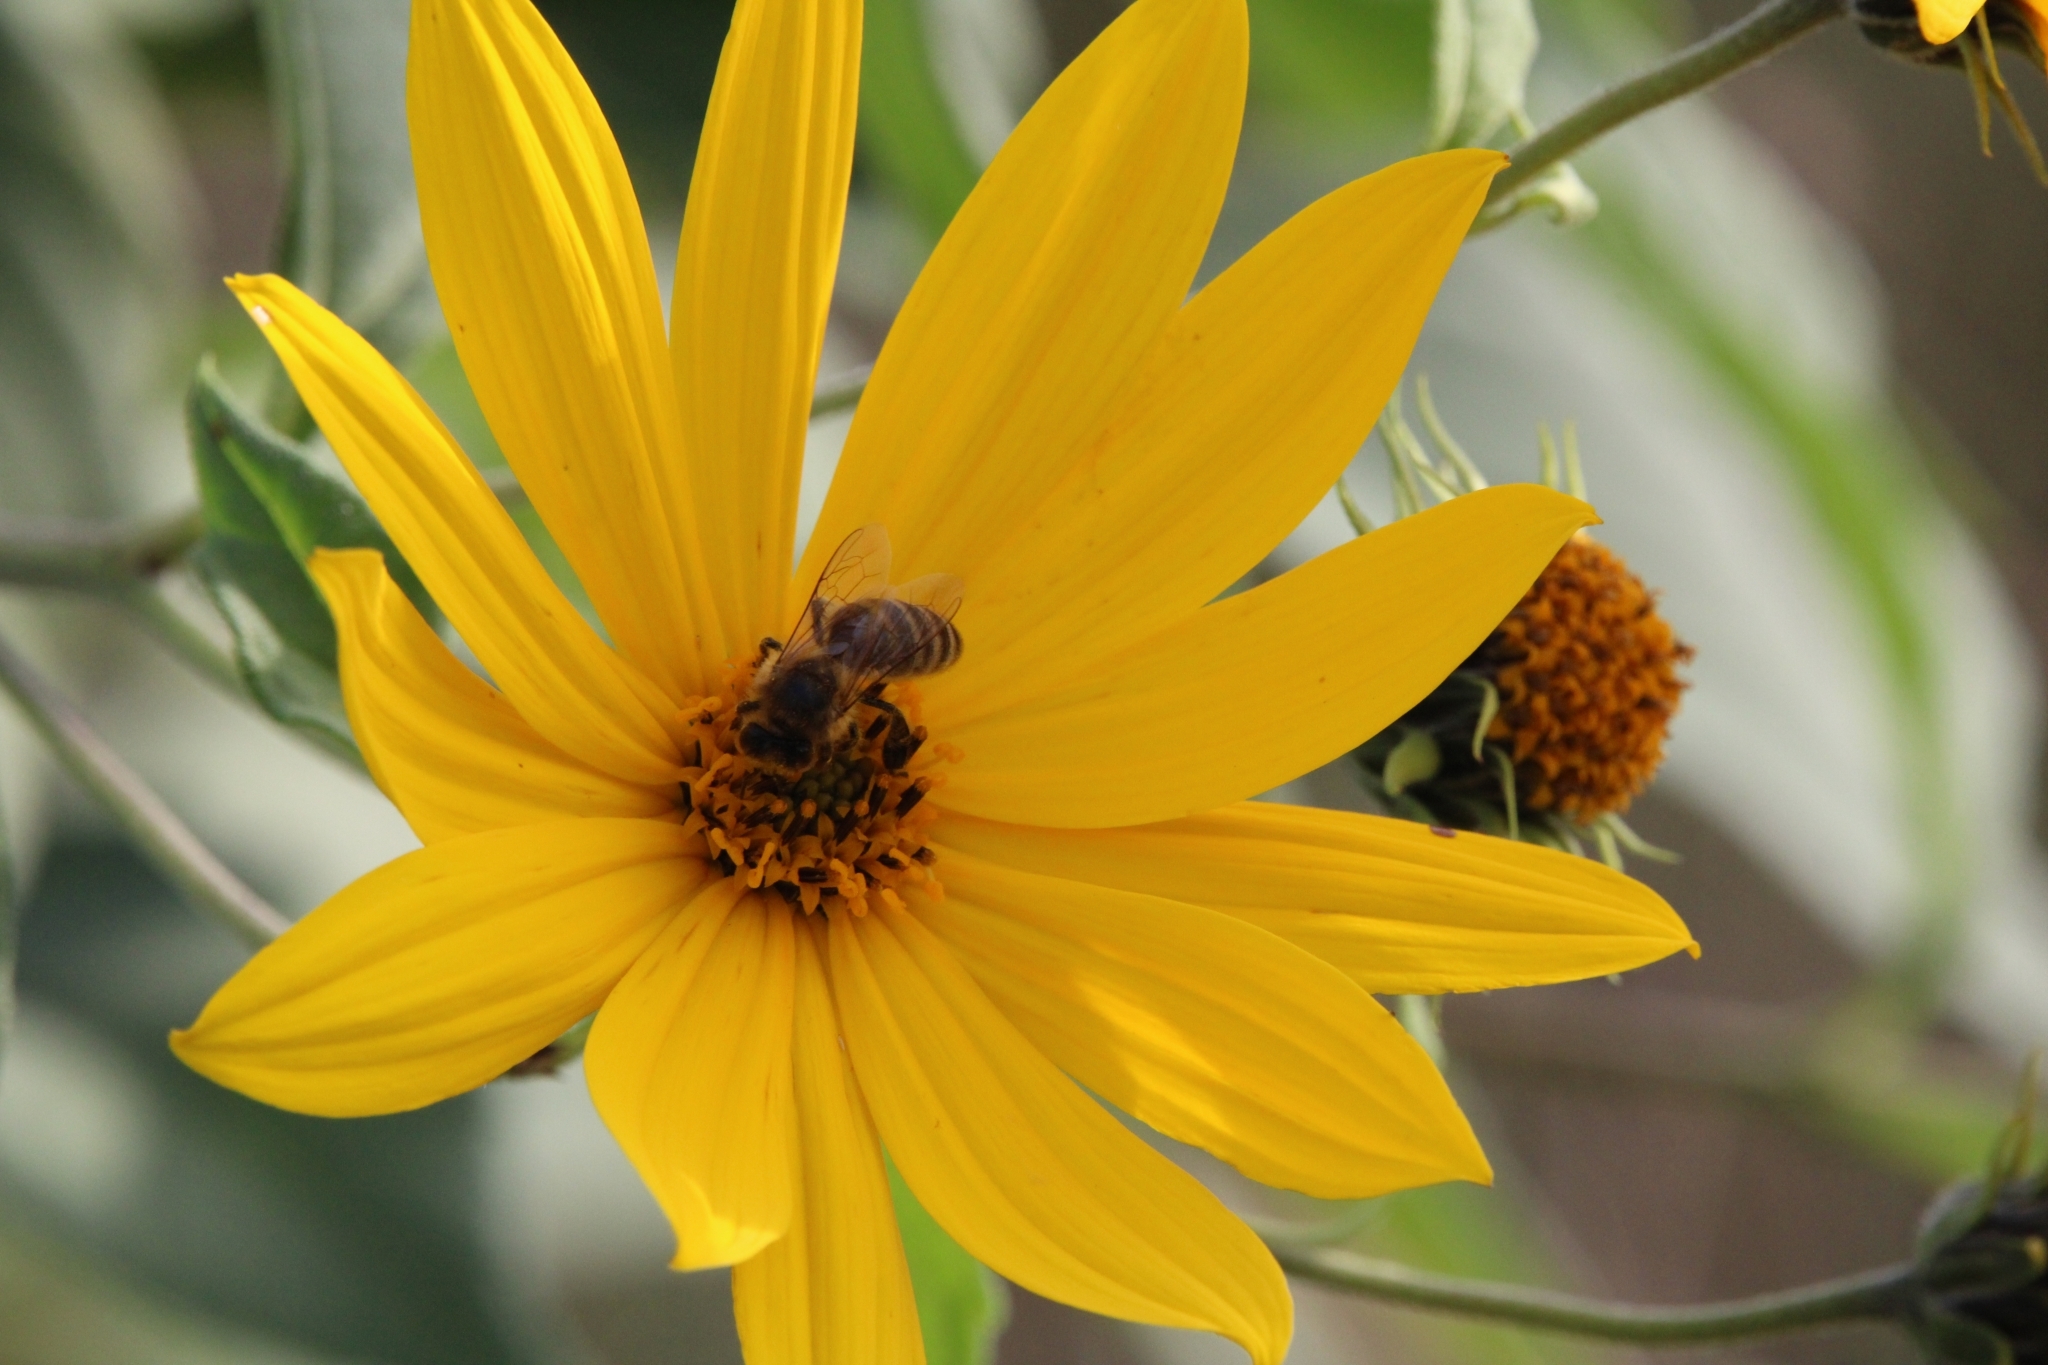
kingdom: Animalia
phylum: Arthropoda
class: Insecta
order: Hymenoptera
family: Apidae
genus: Apis
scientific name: Apis mellifera
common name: Honey bee
